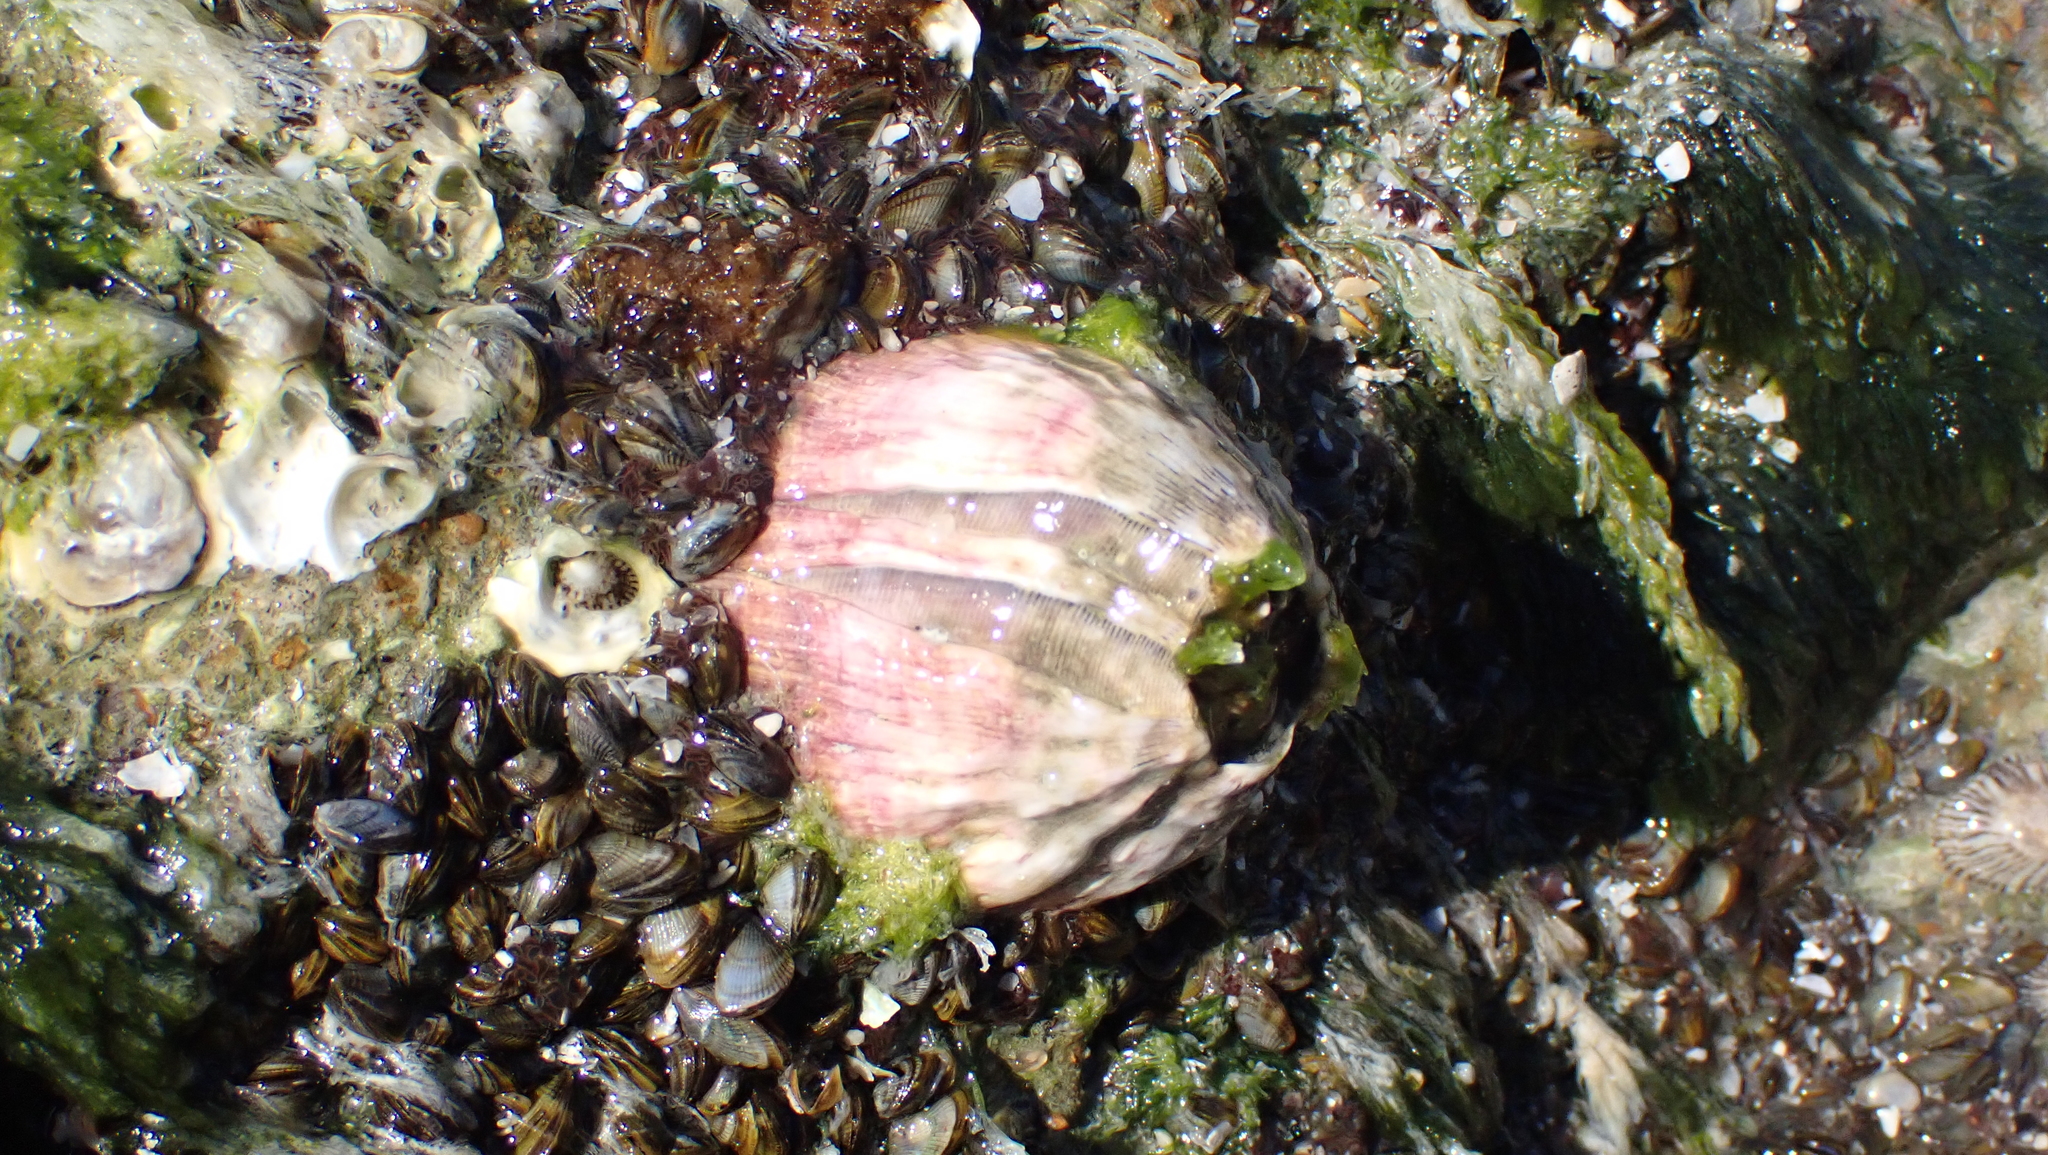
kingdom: Animalia
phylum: Arthropoda
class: Maxillopoda
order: Sessilia
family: Balanidae
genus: Megabalanus
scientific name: Megabalanus tintinnabulum
